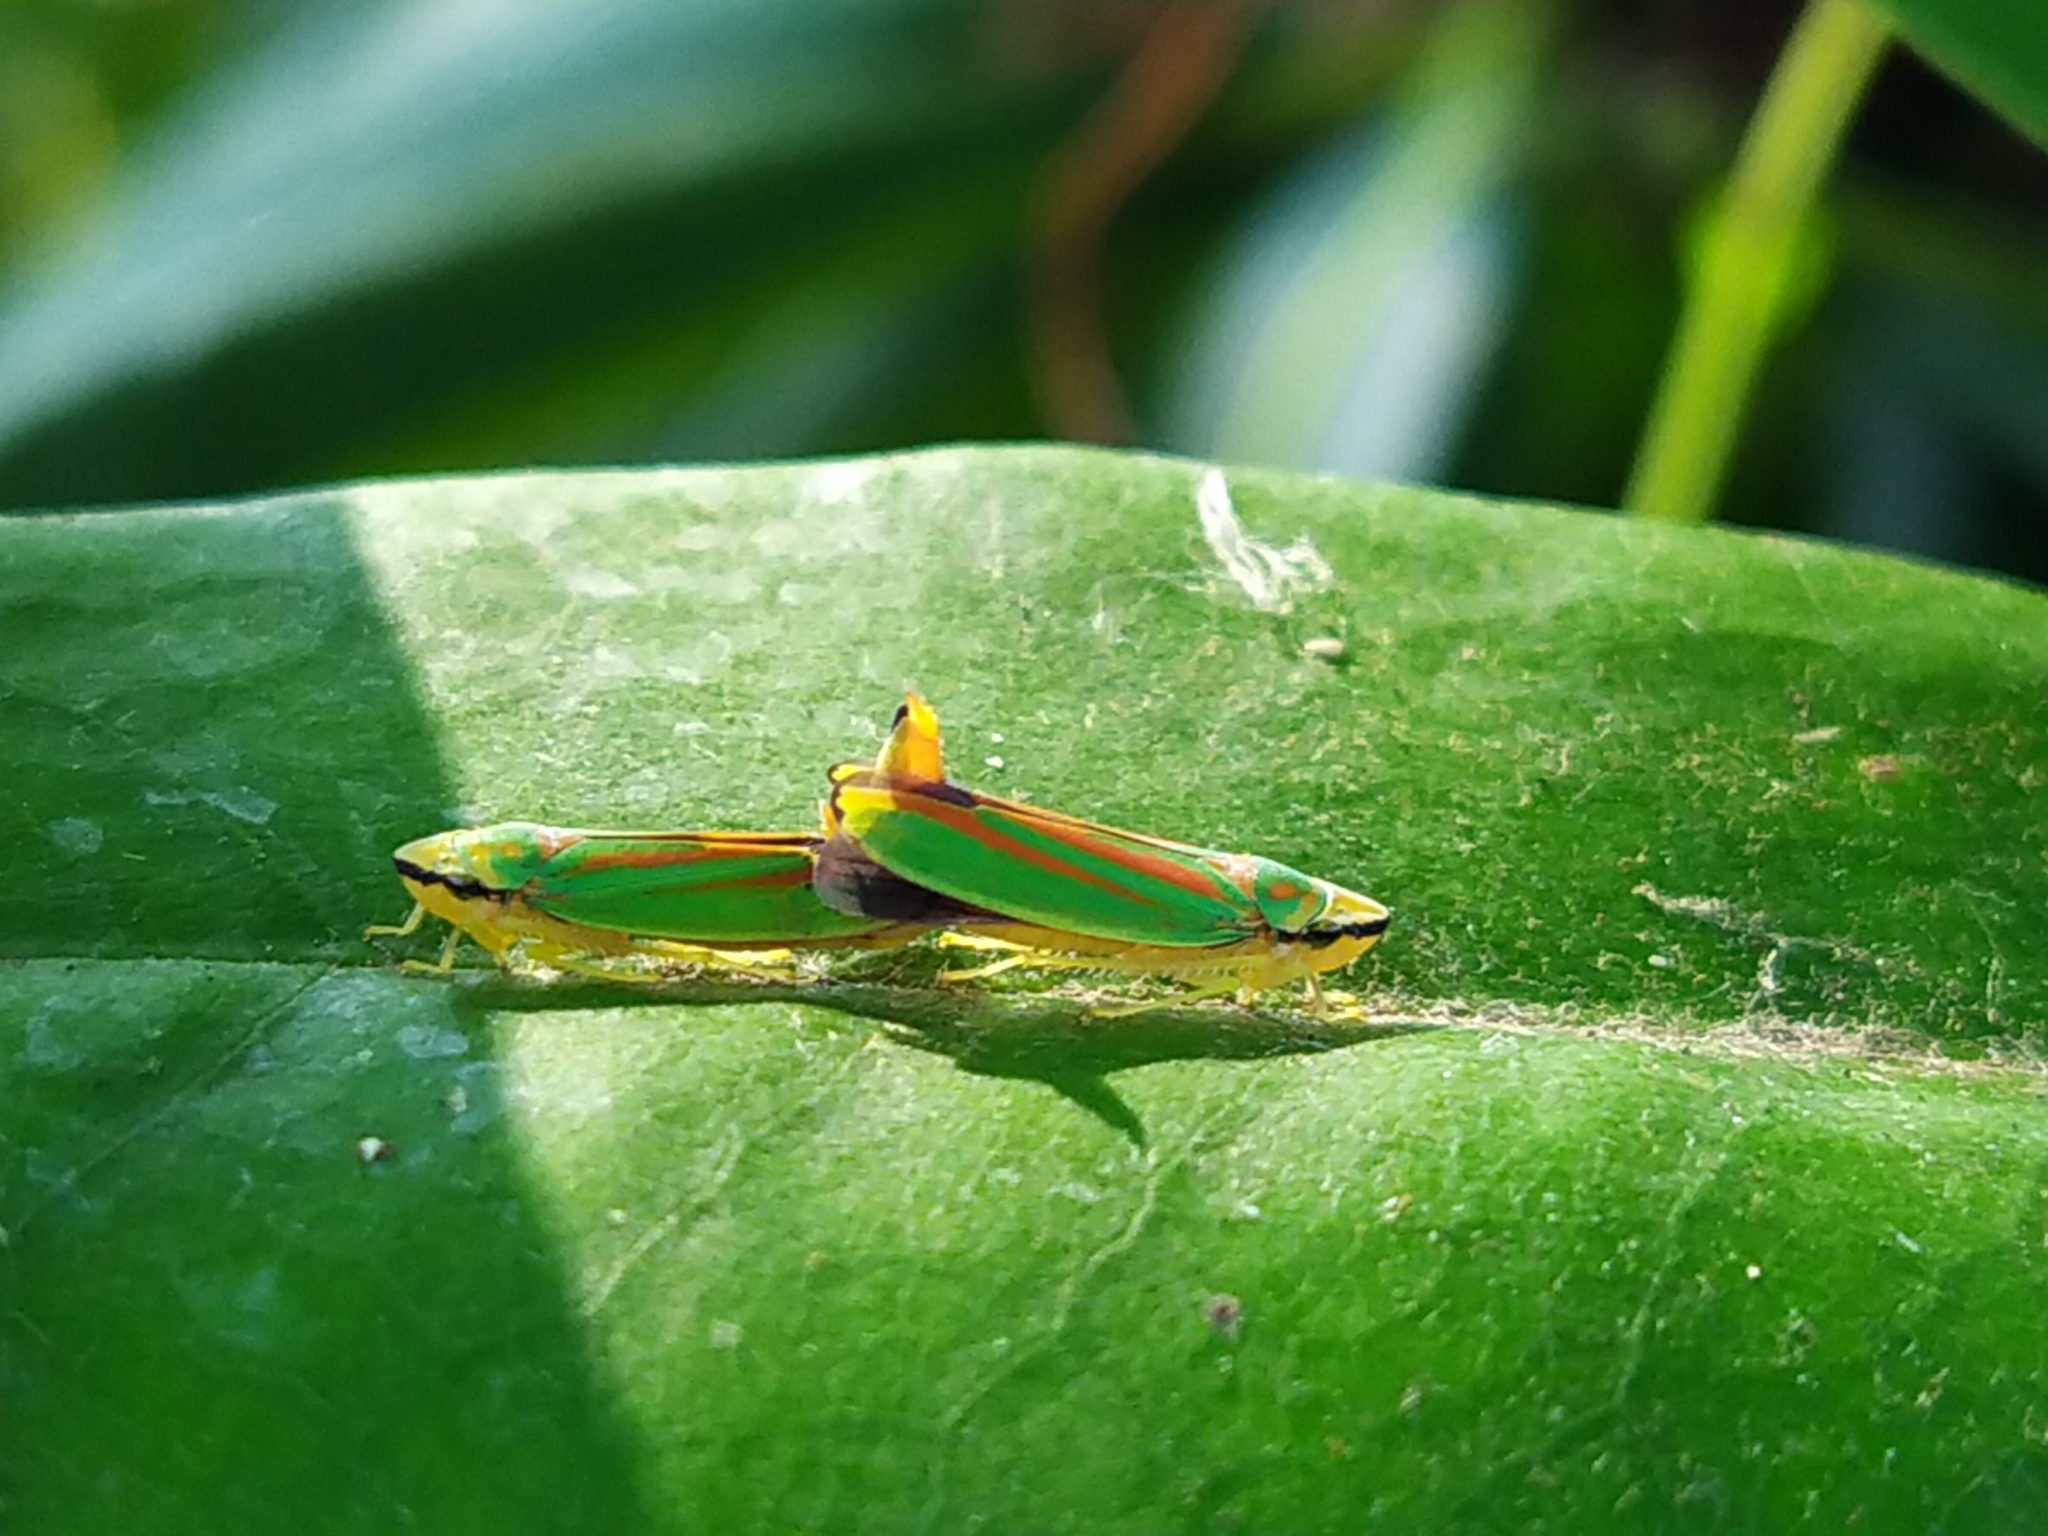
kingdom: Animalia
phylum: Arthropoda
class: Insecta
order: Hemiptera
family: Cicadellidae
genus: Graphocephala
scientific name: Graphocephala fennahi
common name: Rhododendron leafhopper
